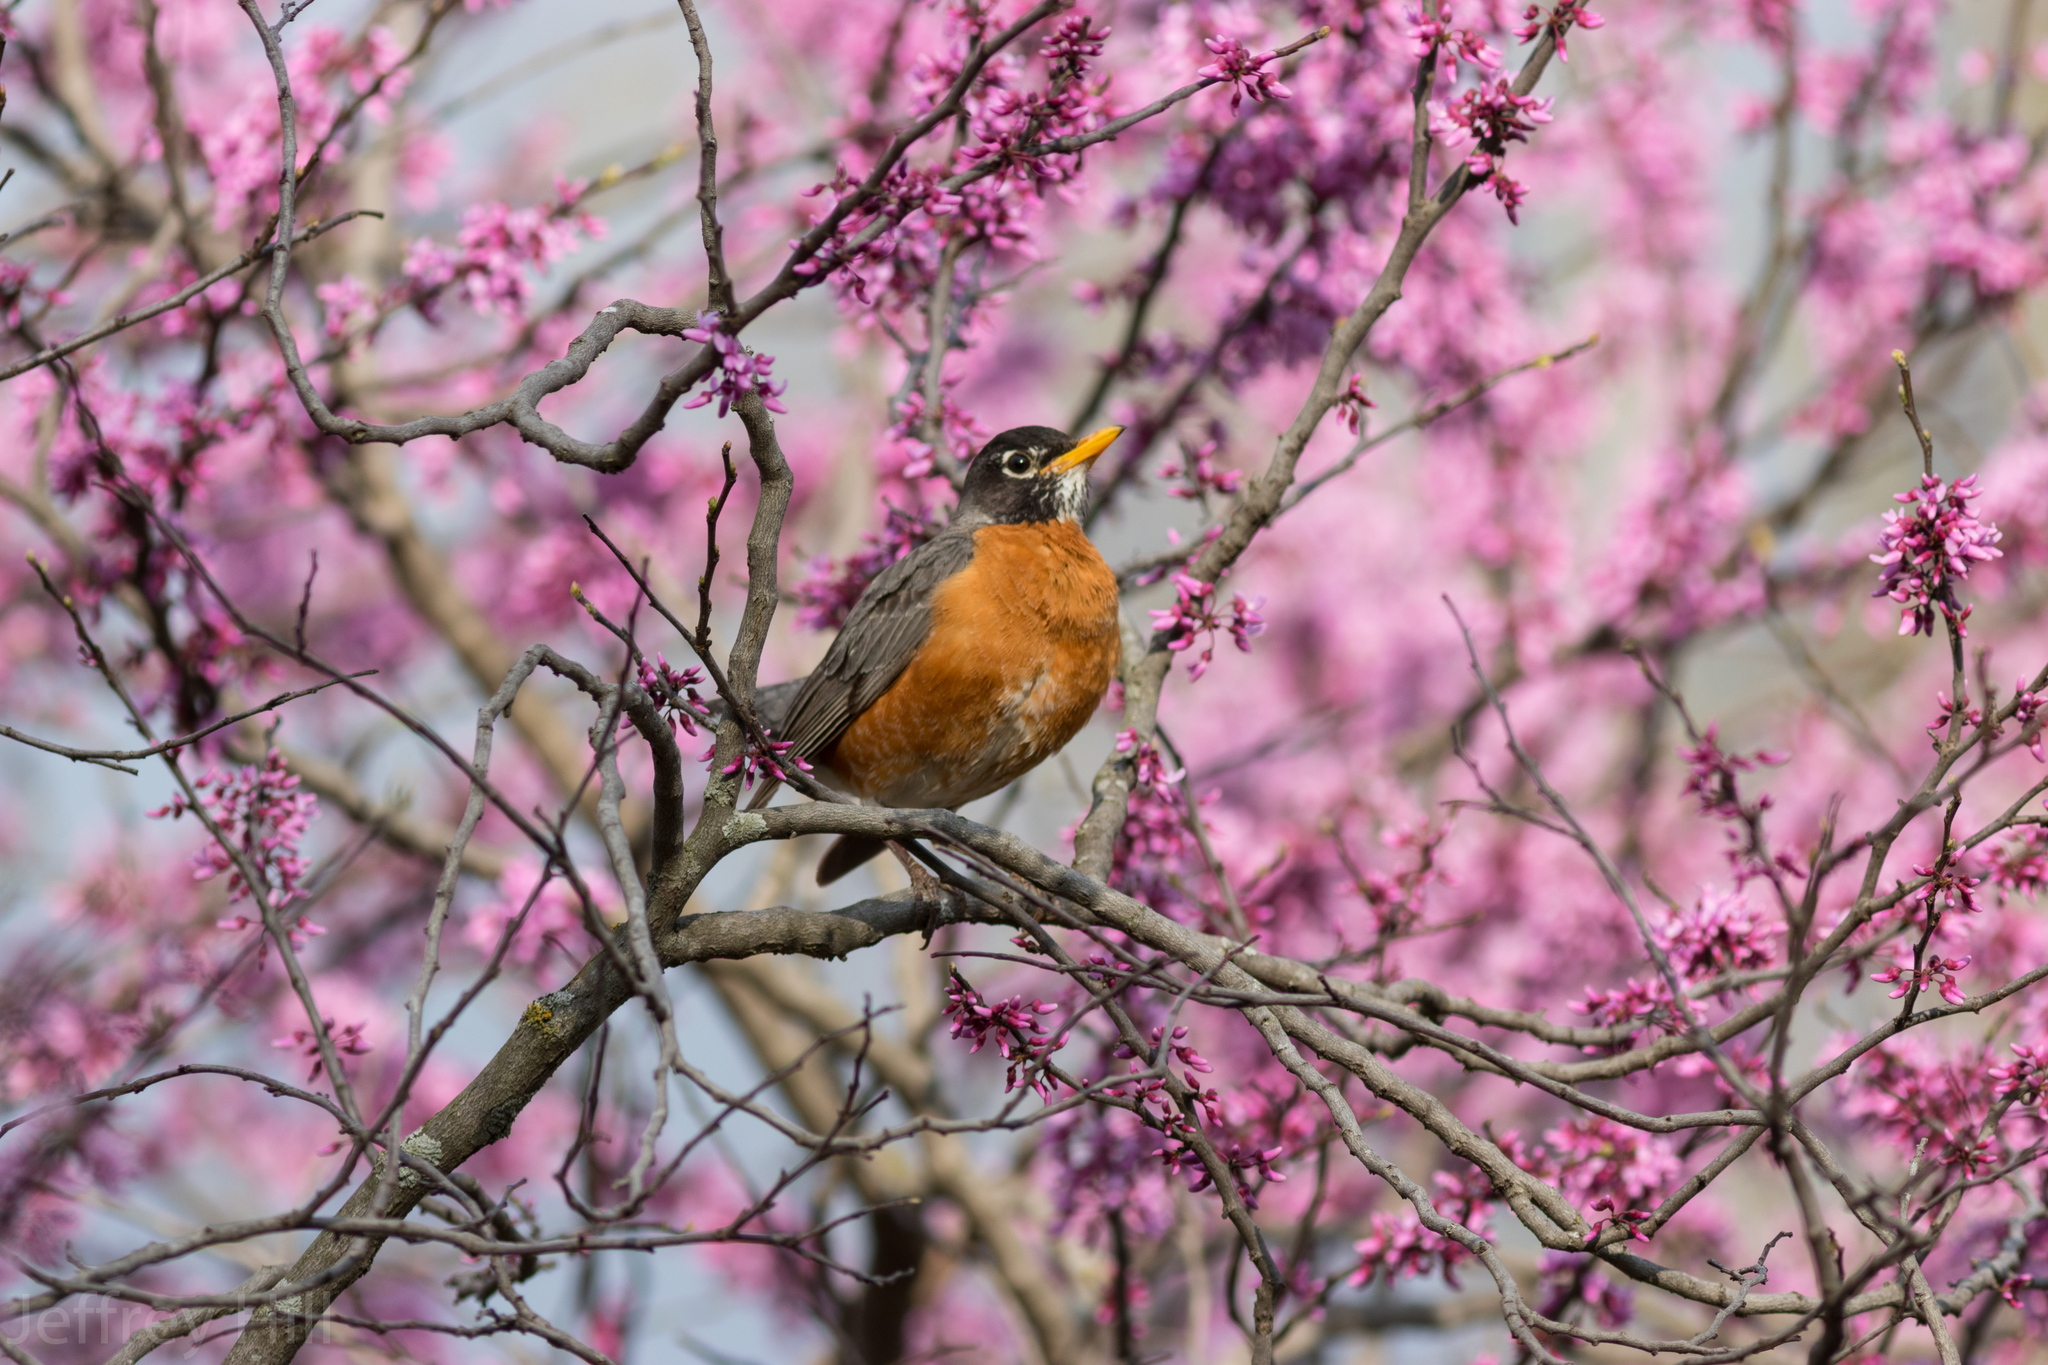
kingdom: Animalia
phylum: Chordata
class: Aves
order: Passeriformes
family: Turdidae
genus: Turdus
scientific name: Turdus migratorius
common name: American robin
